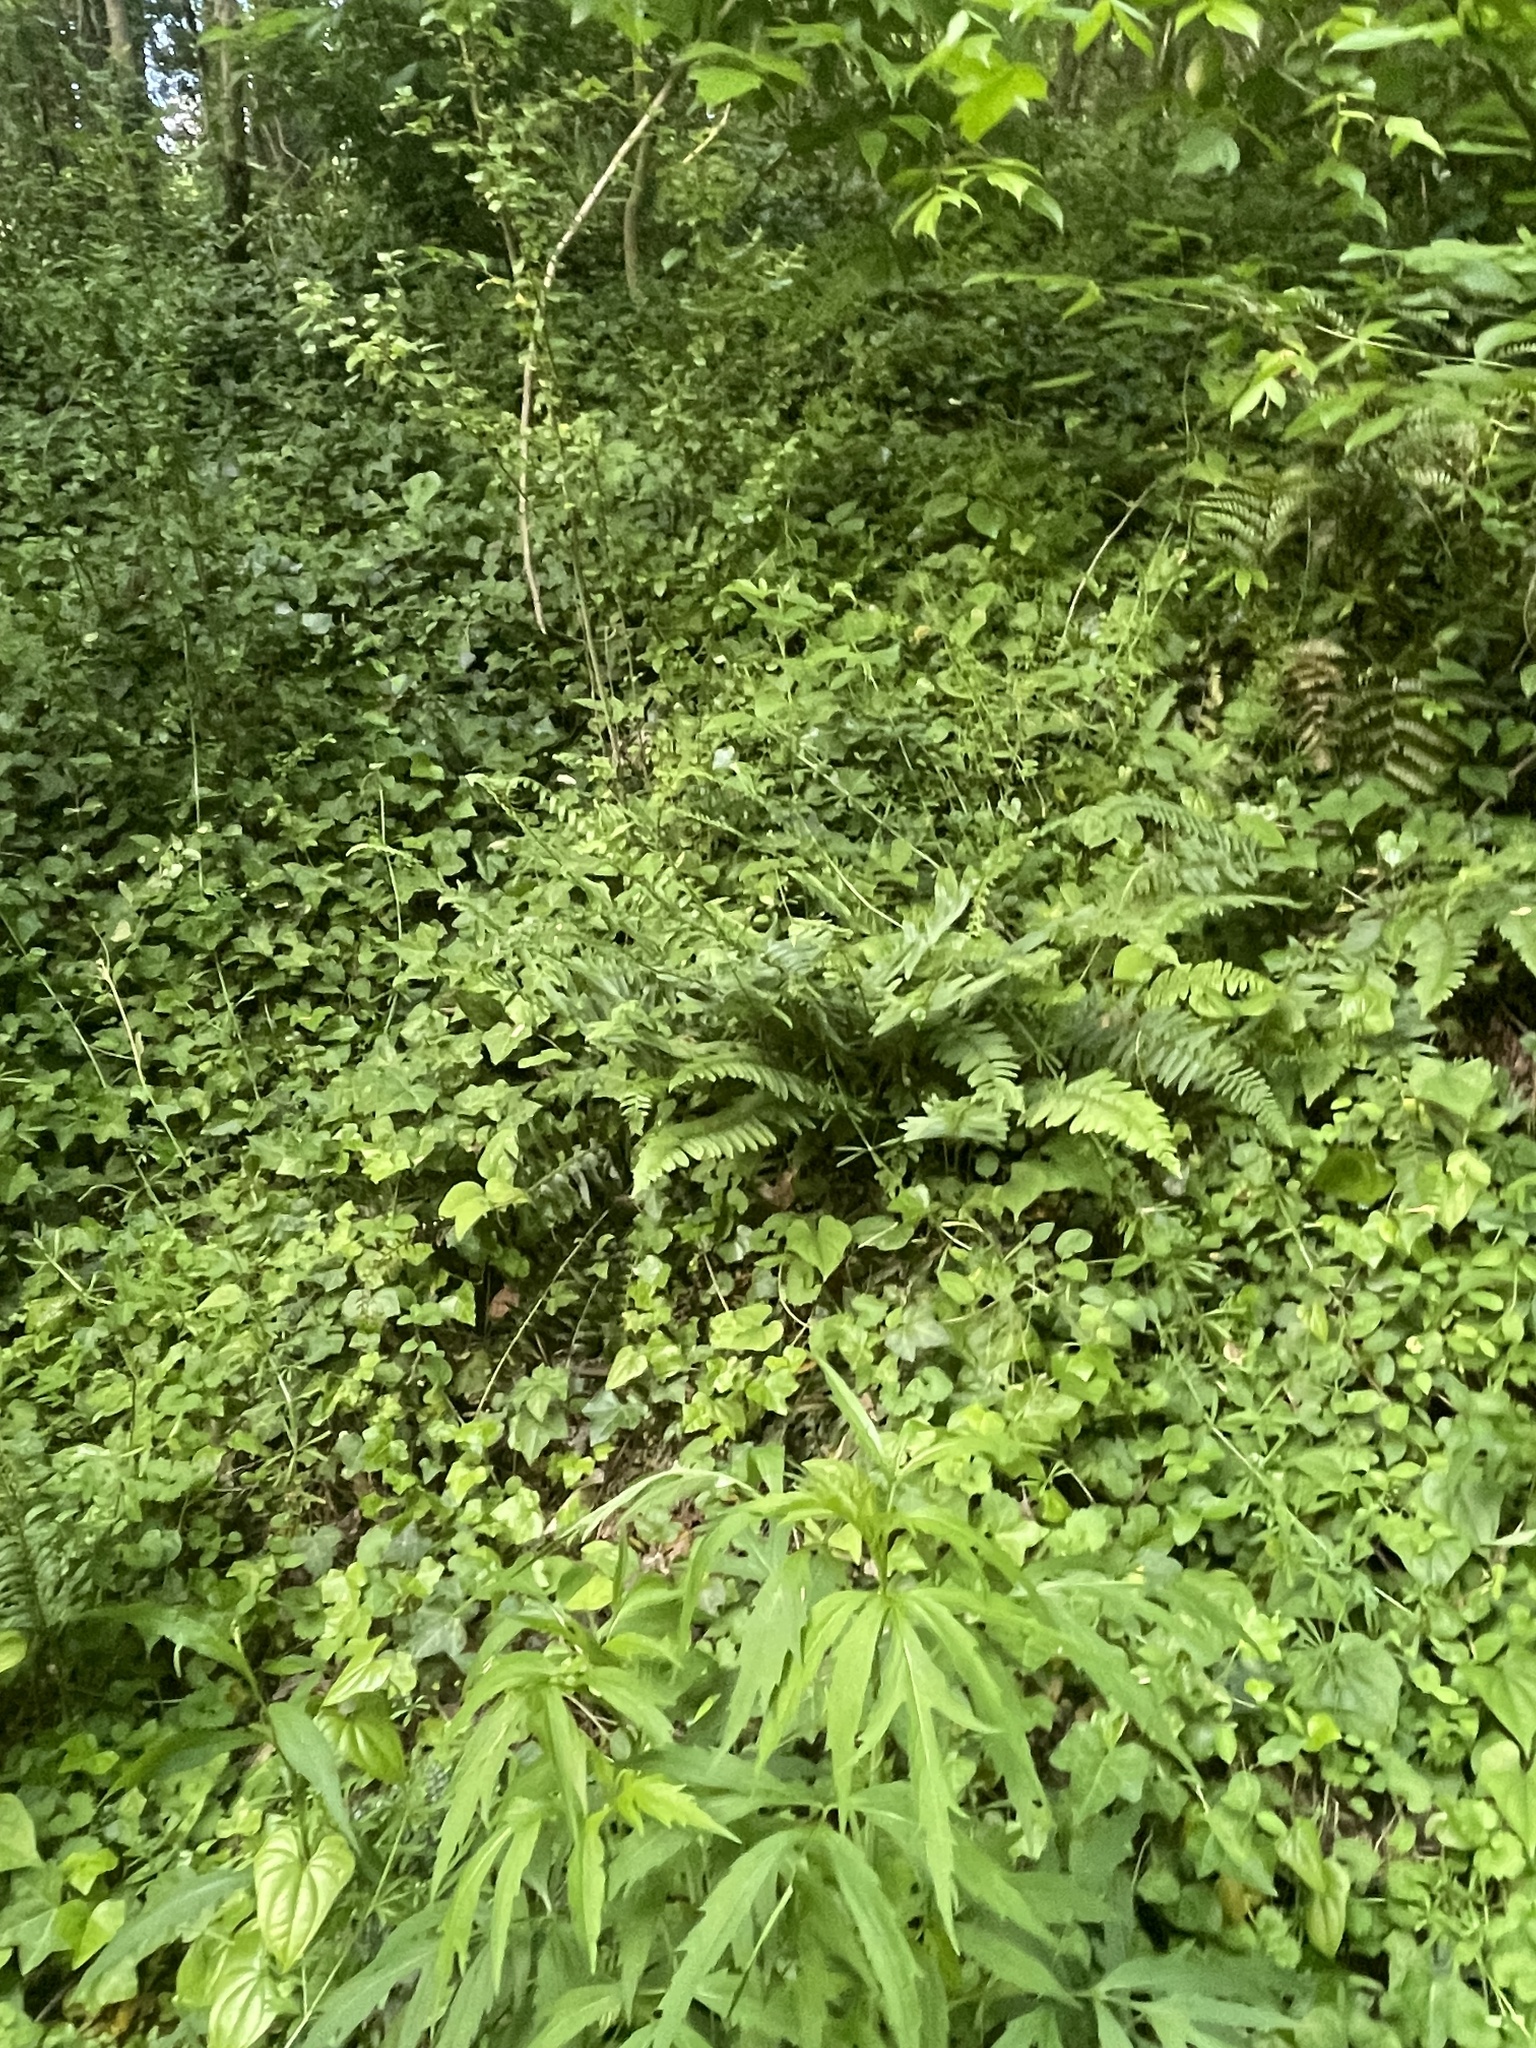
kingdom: Plantae
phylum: Tracheophyta
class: Polypodiopsida
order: Polypodiales
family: Dryopteridaceae
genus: Polystichum
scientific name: Polystichum acrostichoides
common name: Christmas fern
